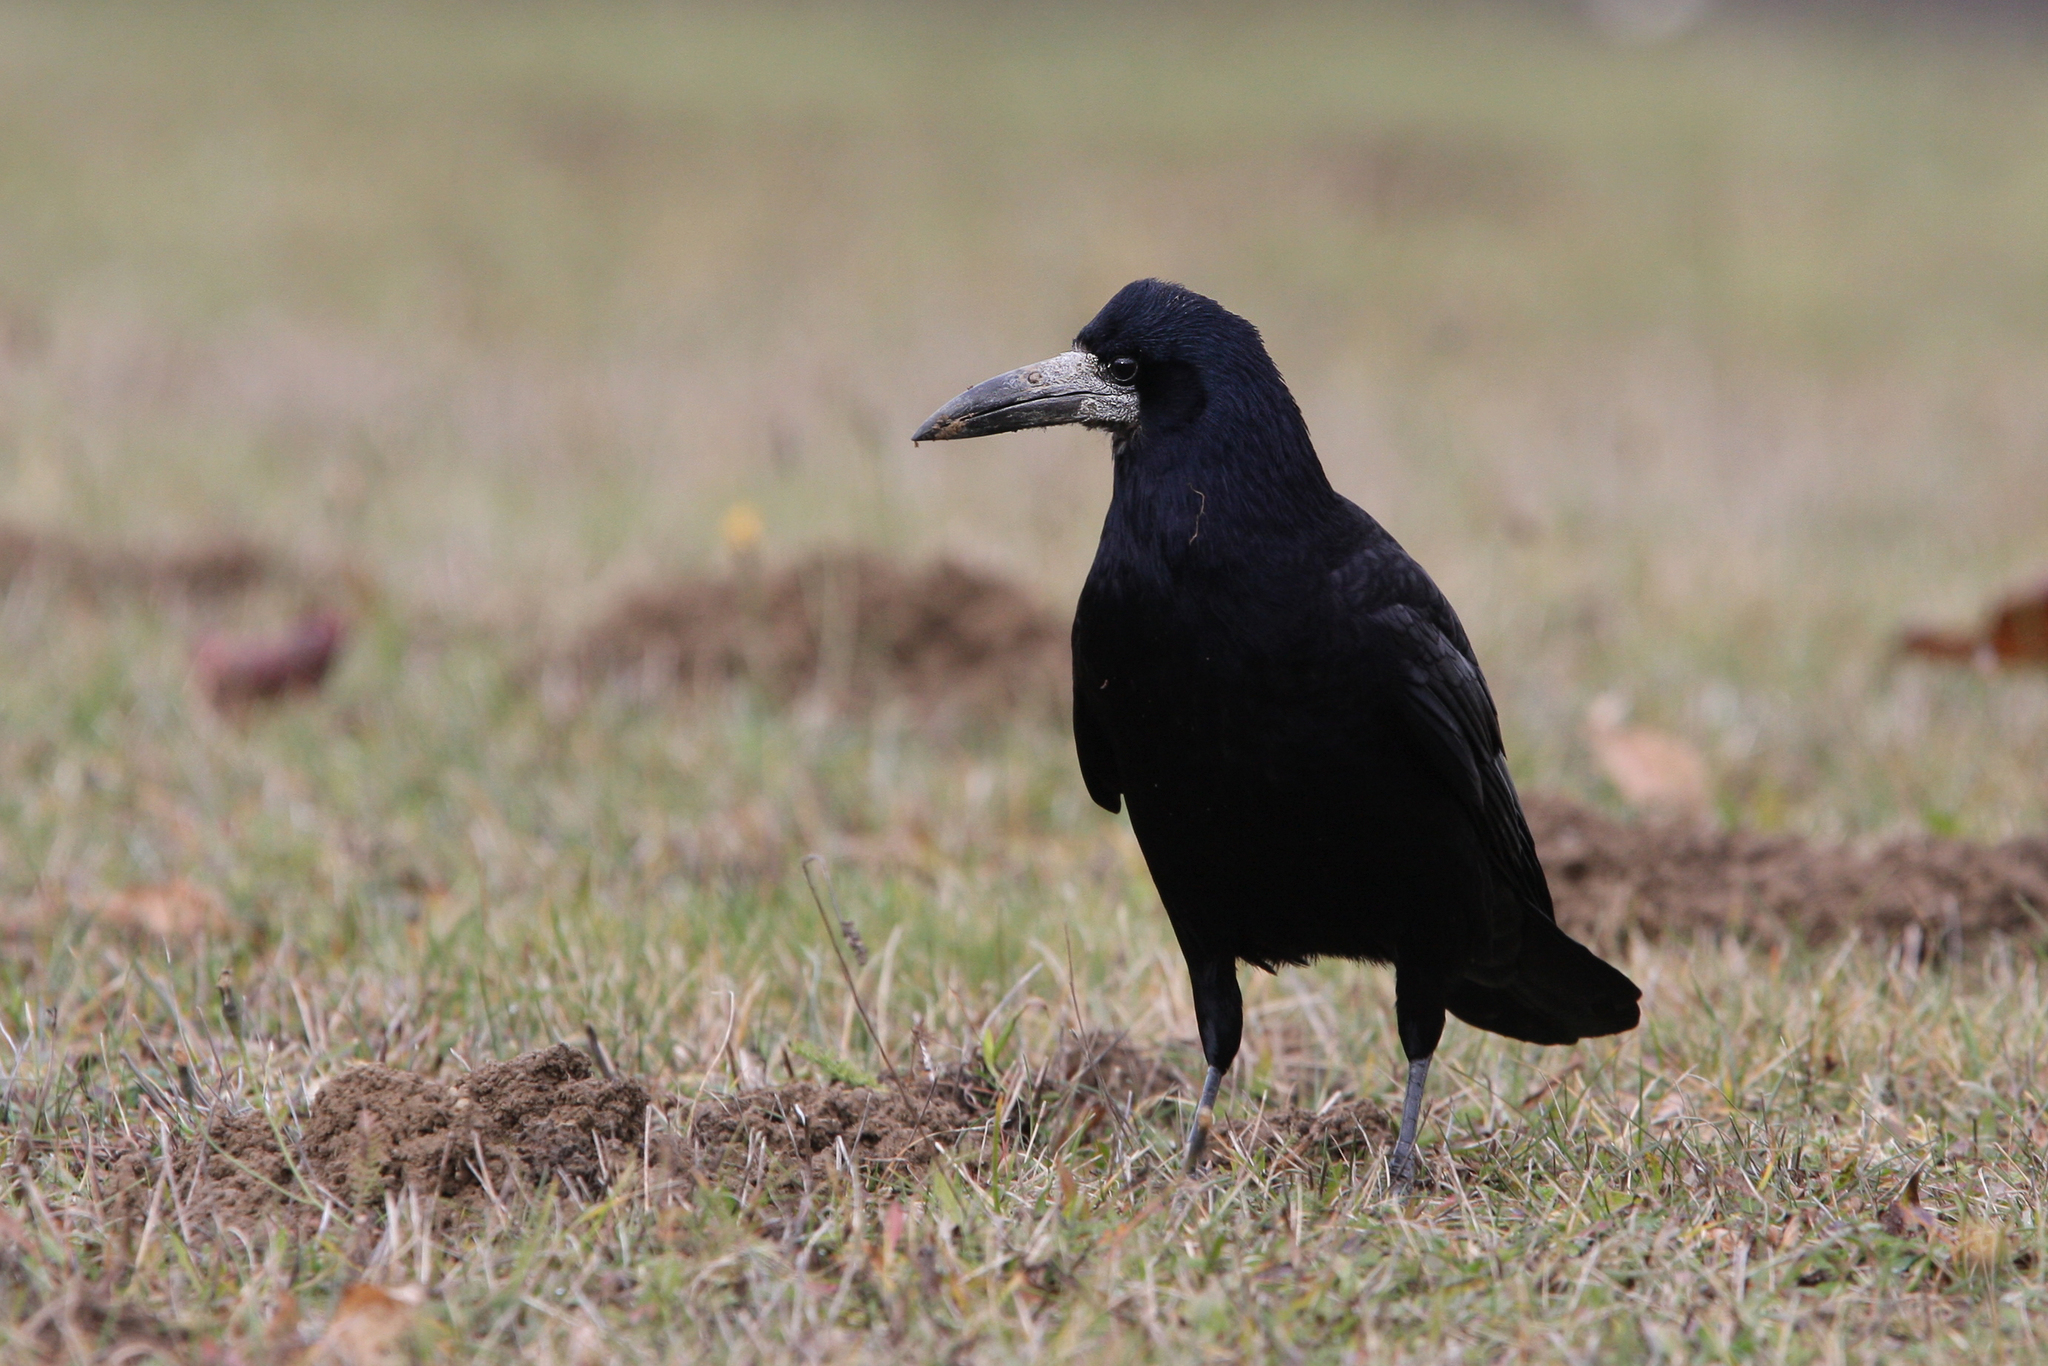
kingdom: Animalia
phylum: Chordata
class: Aves
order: Passeriformes
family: Corvidae
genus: Corvus
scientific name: Corvus frugilegus
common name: Rook
